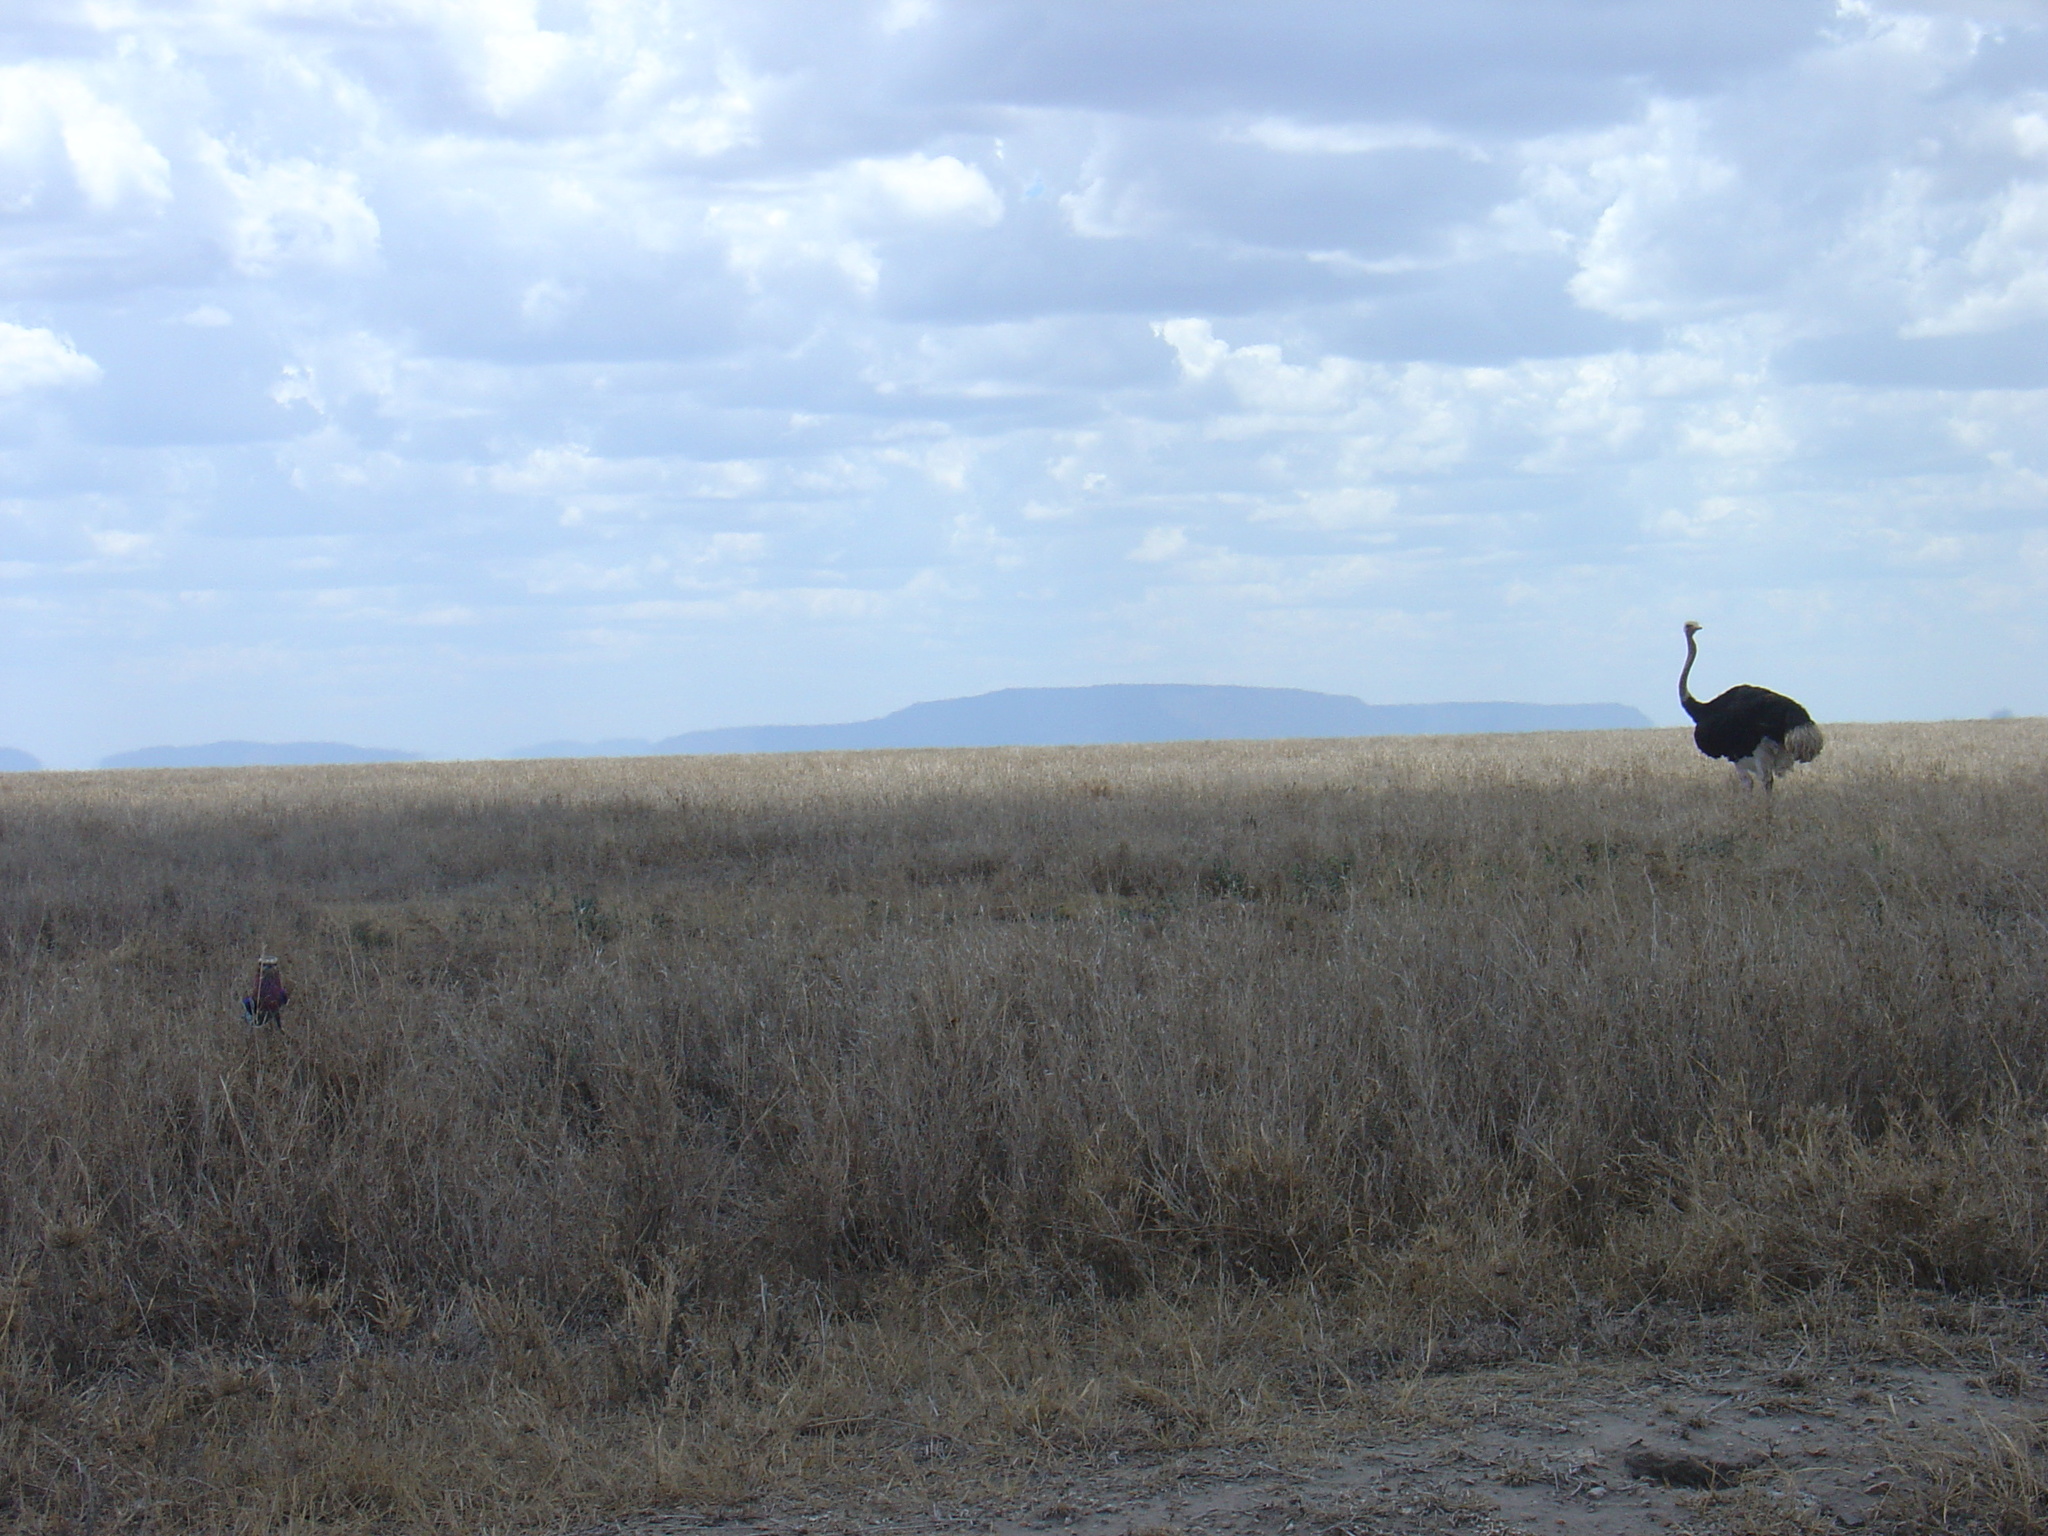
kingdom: Animalia
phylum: Chordata
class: Aves
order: Struthioniformes
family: Struthionidae
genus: Struthio
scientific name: Struthio camelus
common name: Common ostrich
